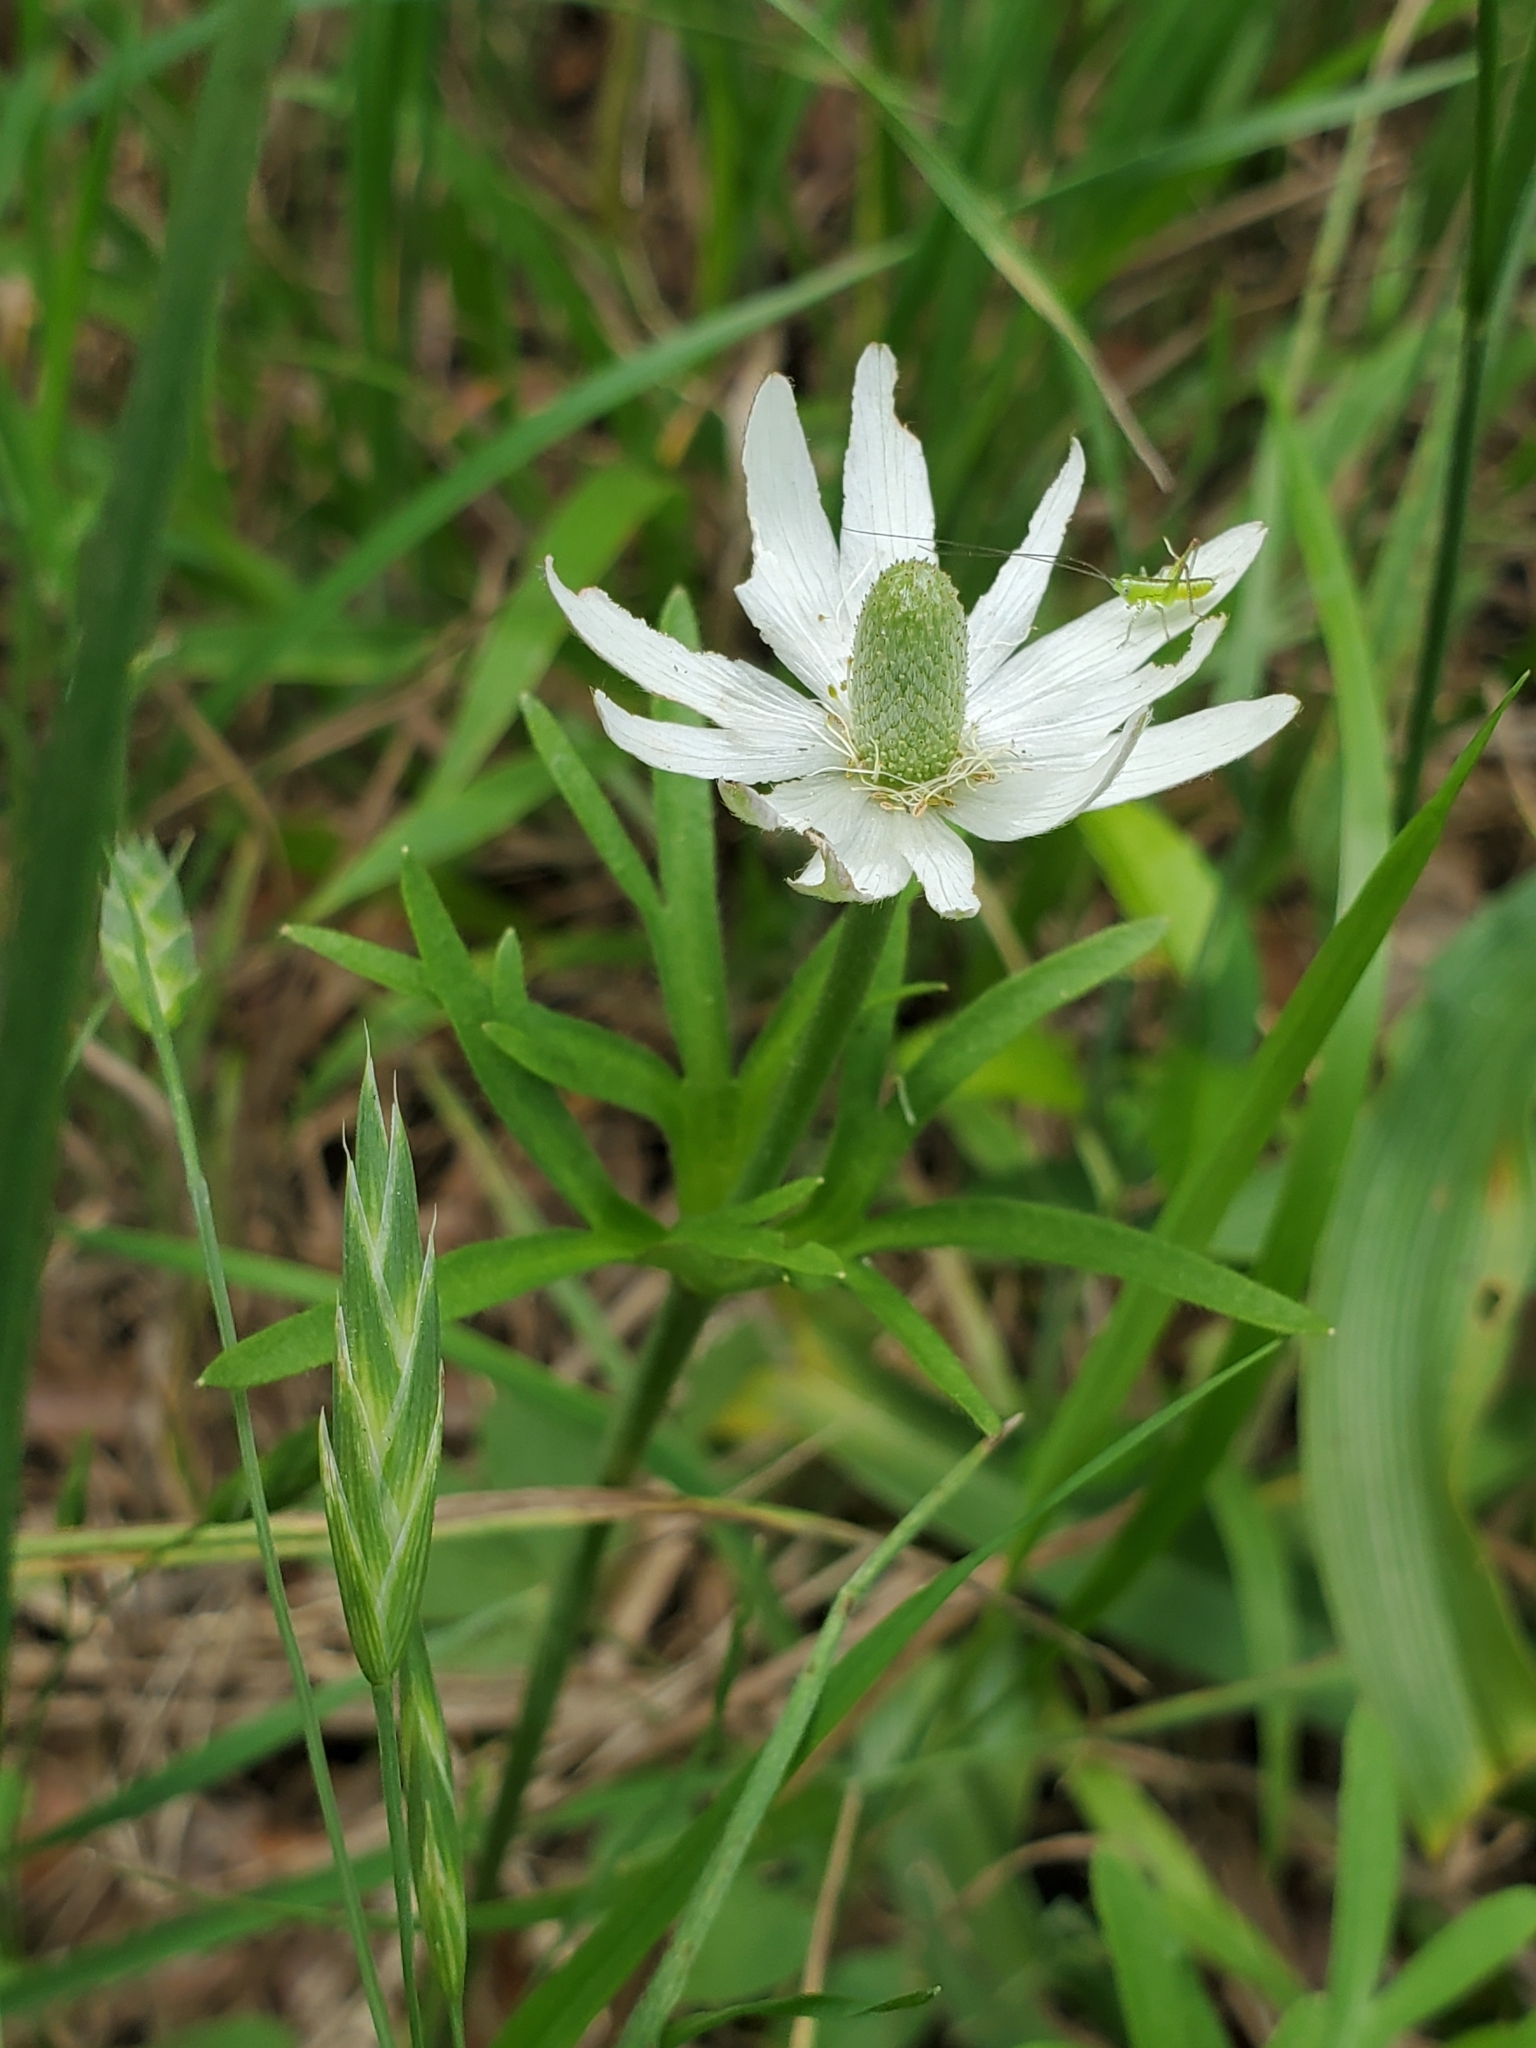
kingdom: Plantae
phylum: Tracheophyta
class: Magnoliopsida
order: Ranunculales
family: Ranunculaceae
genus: Anemone
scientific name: Anemone berlandieri
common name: Ten-petal anemone
